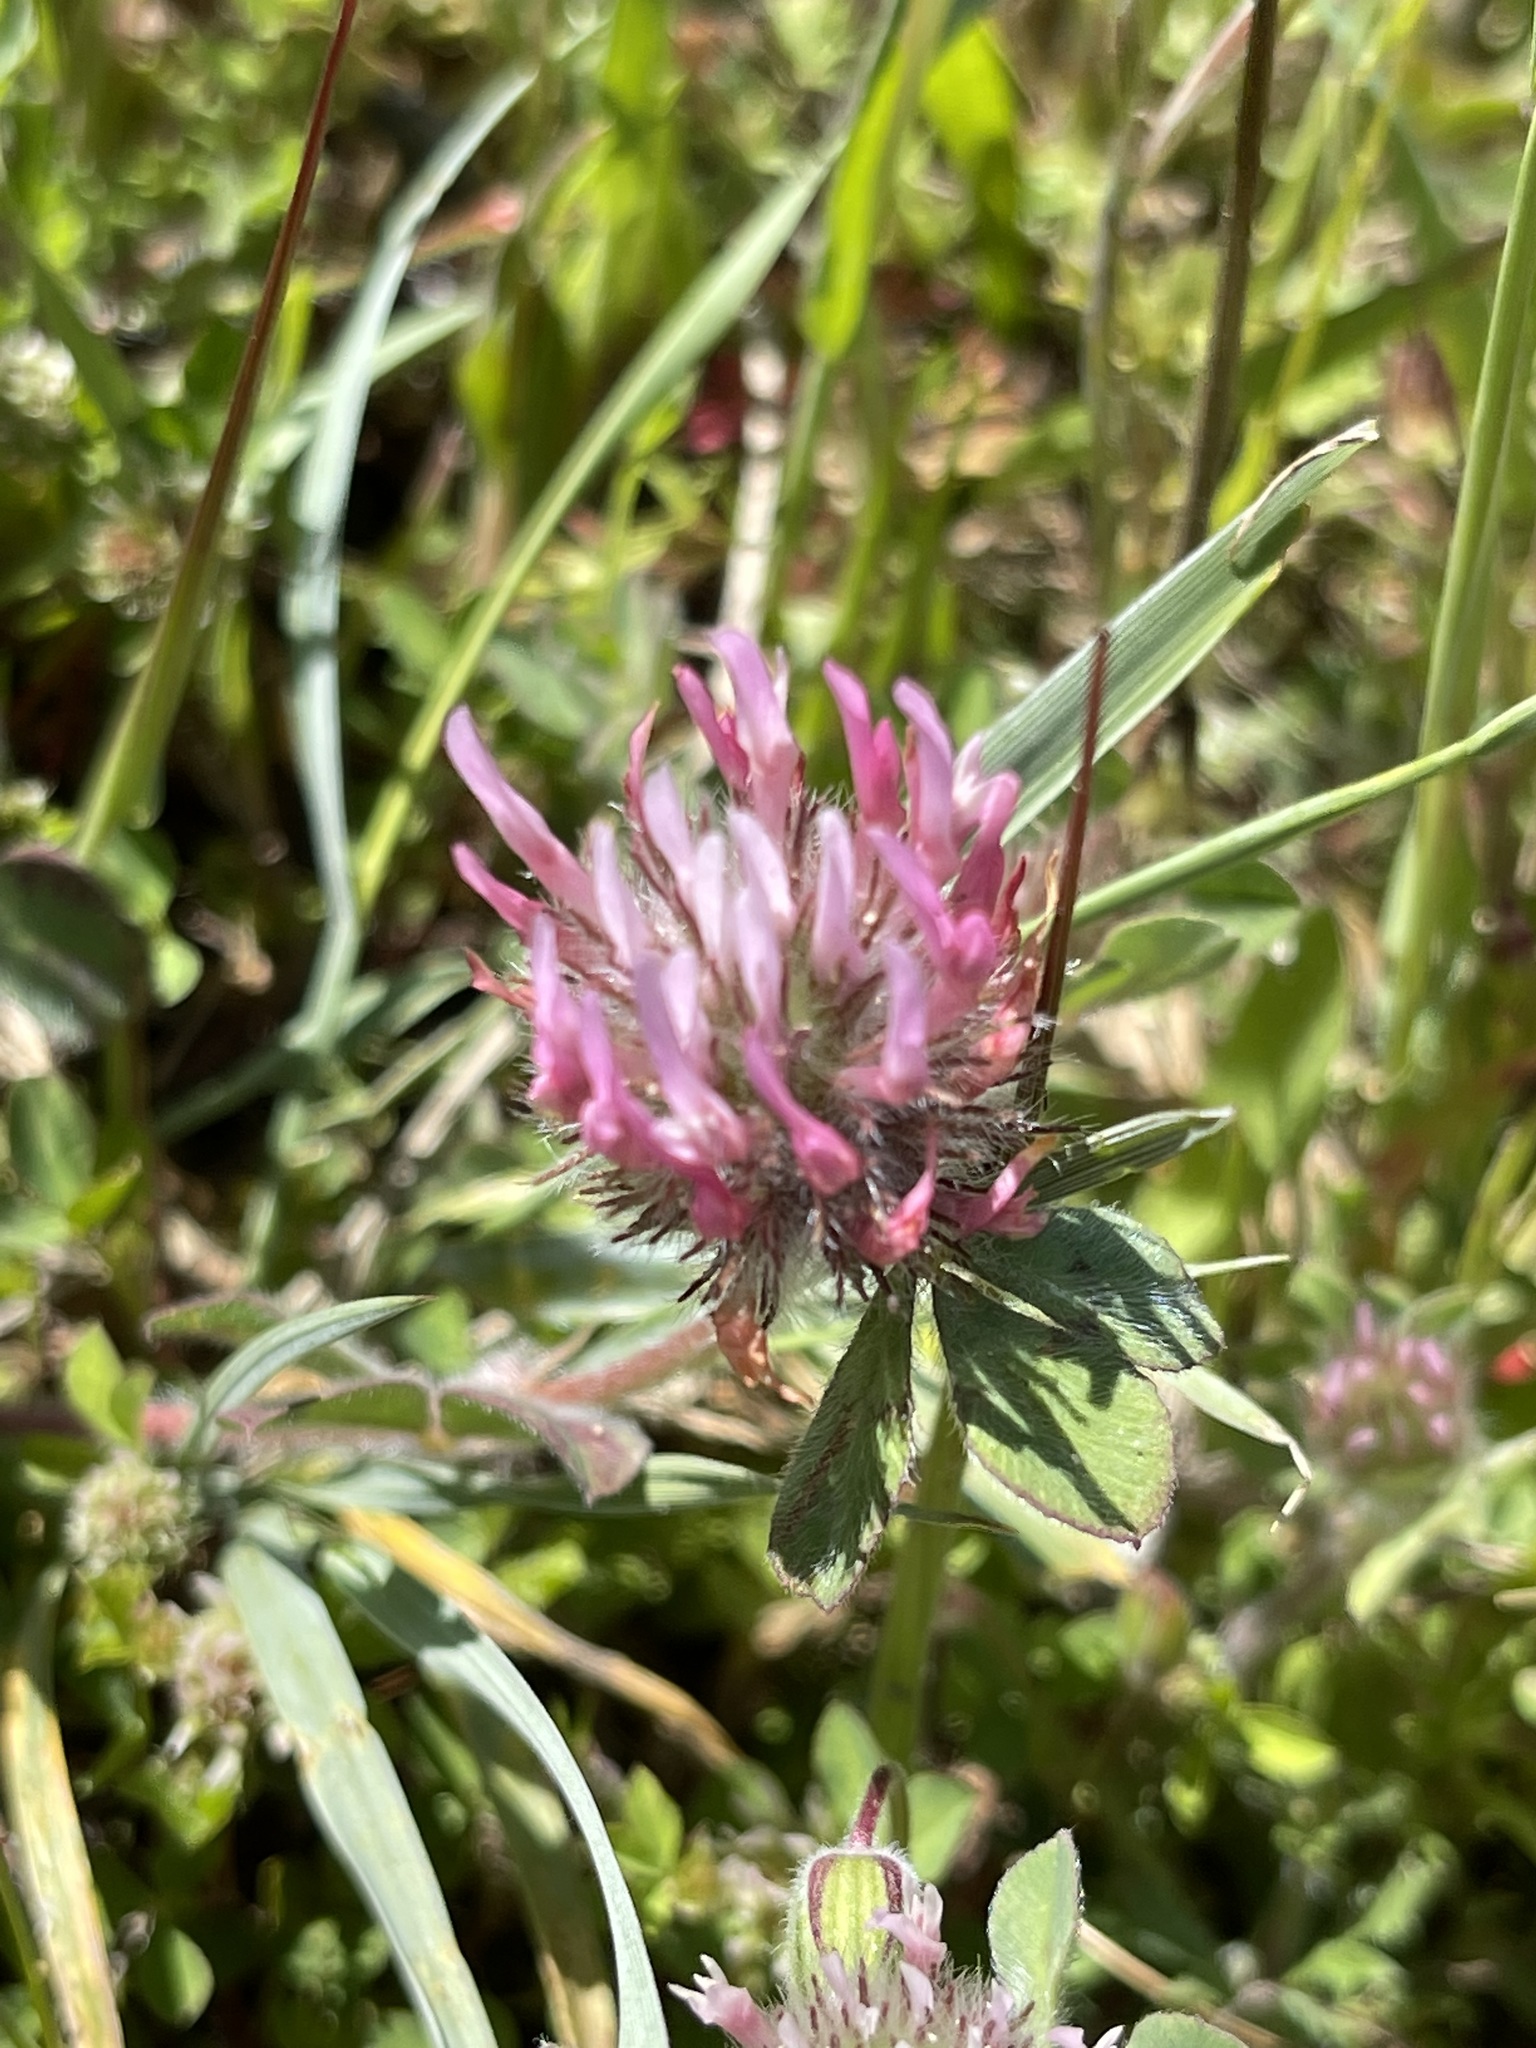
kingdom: Plantae
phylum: Tracheophyta
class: Magnoliopsida
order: Fabales
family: Fabaceae
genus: Trifolium
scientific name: Trifolium hirtum
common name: Rose clover
